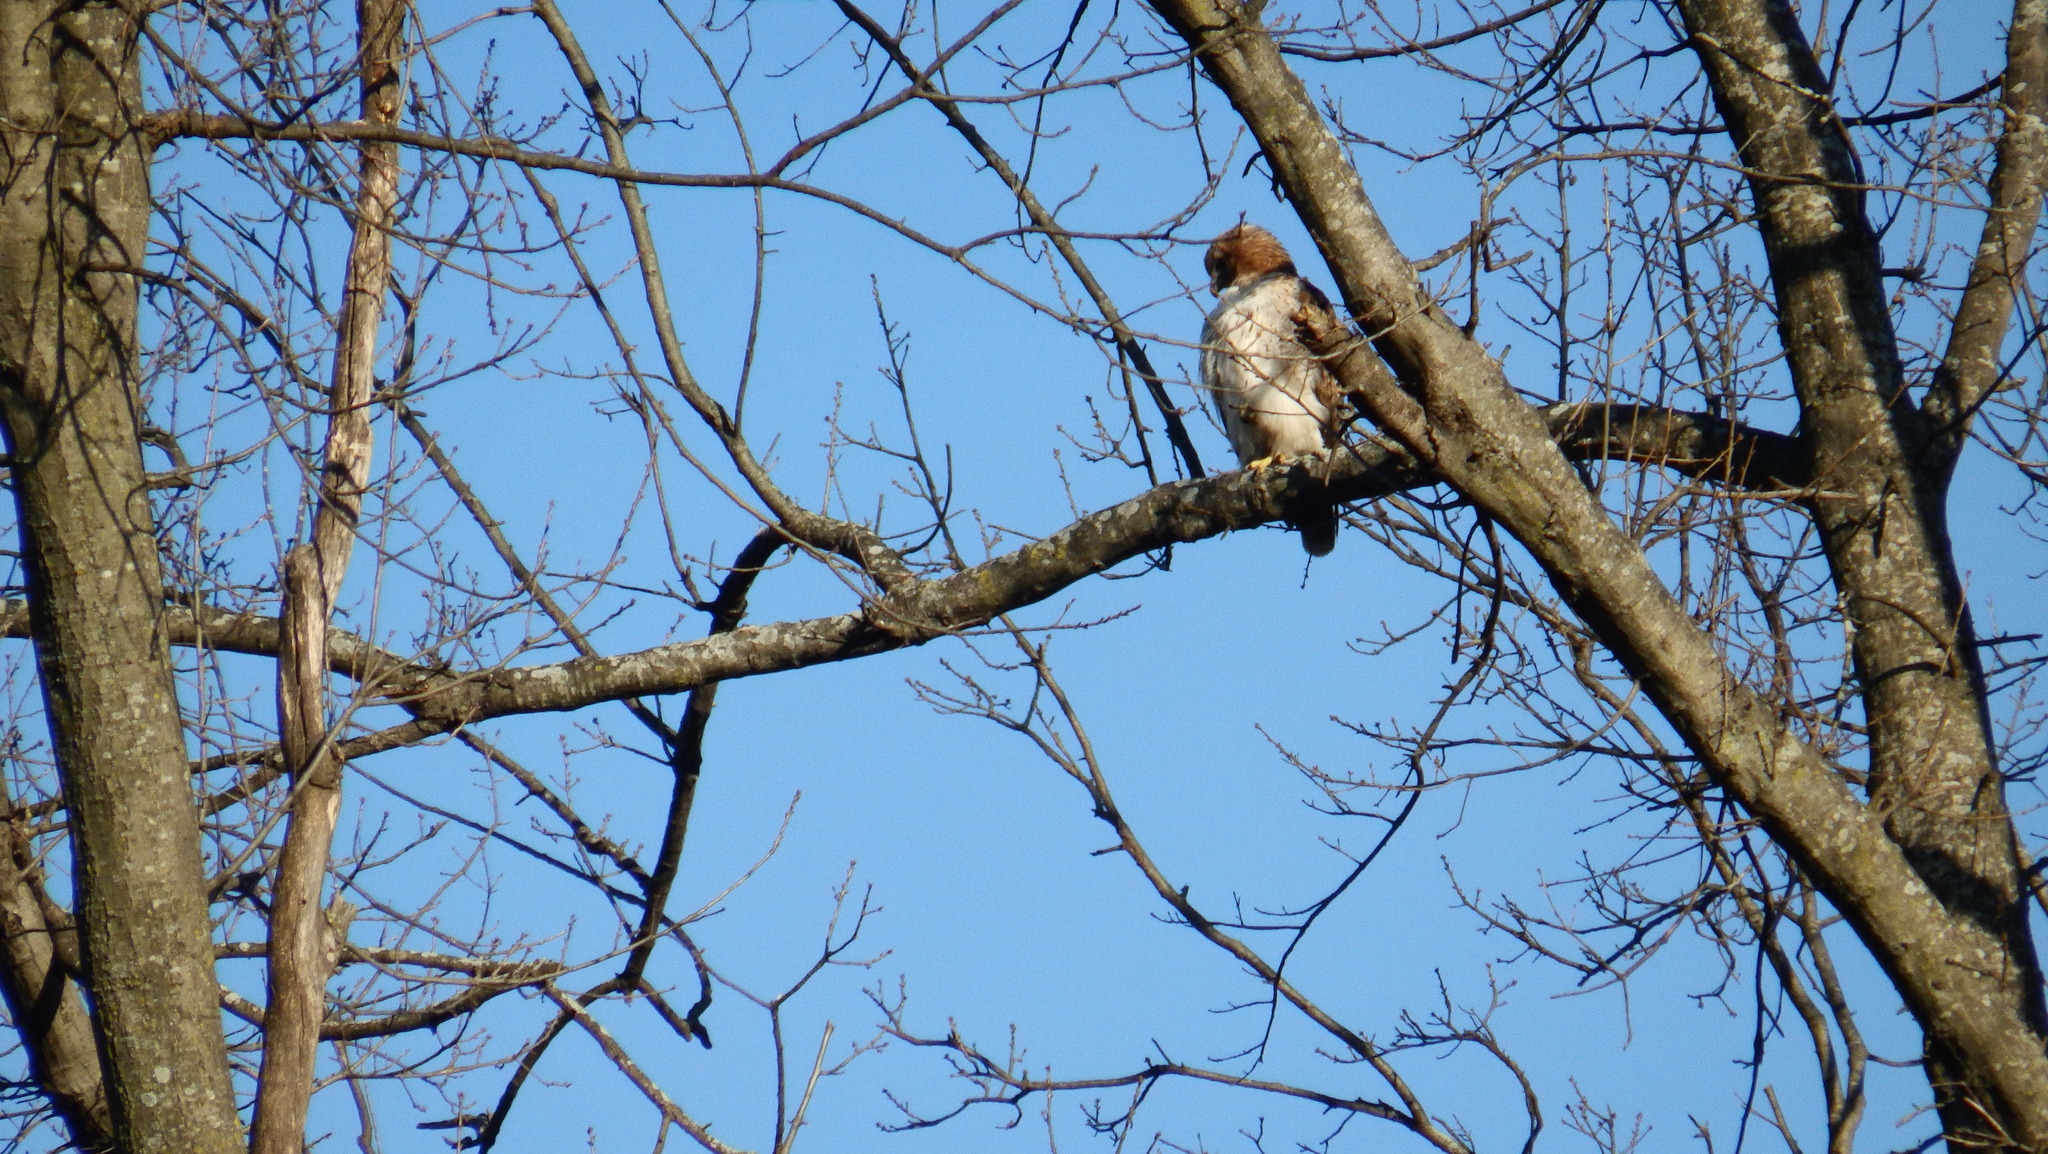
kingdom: Animalia
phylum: Chordata
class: Aves
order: Accipitriformes
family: Accipitridae
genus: Buteo
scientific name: Buteo jamaicensis
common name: Red-tailed hawk
